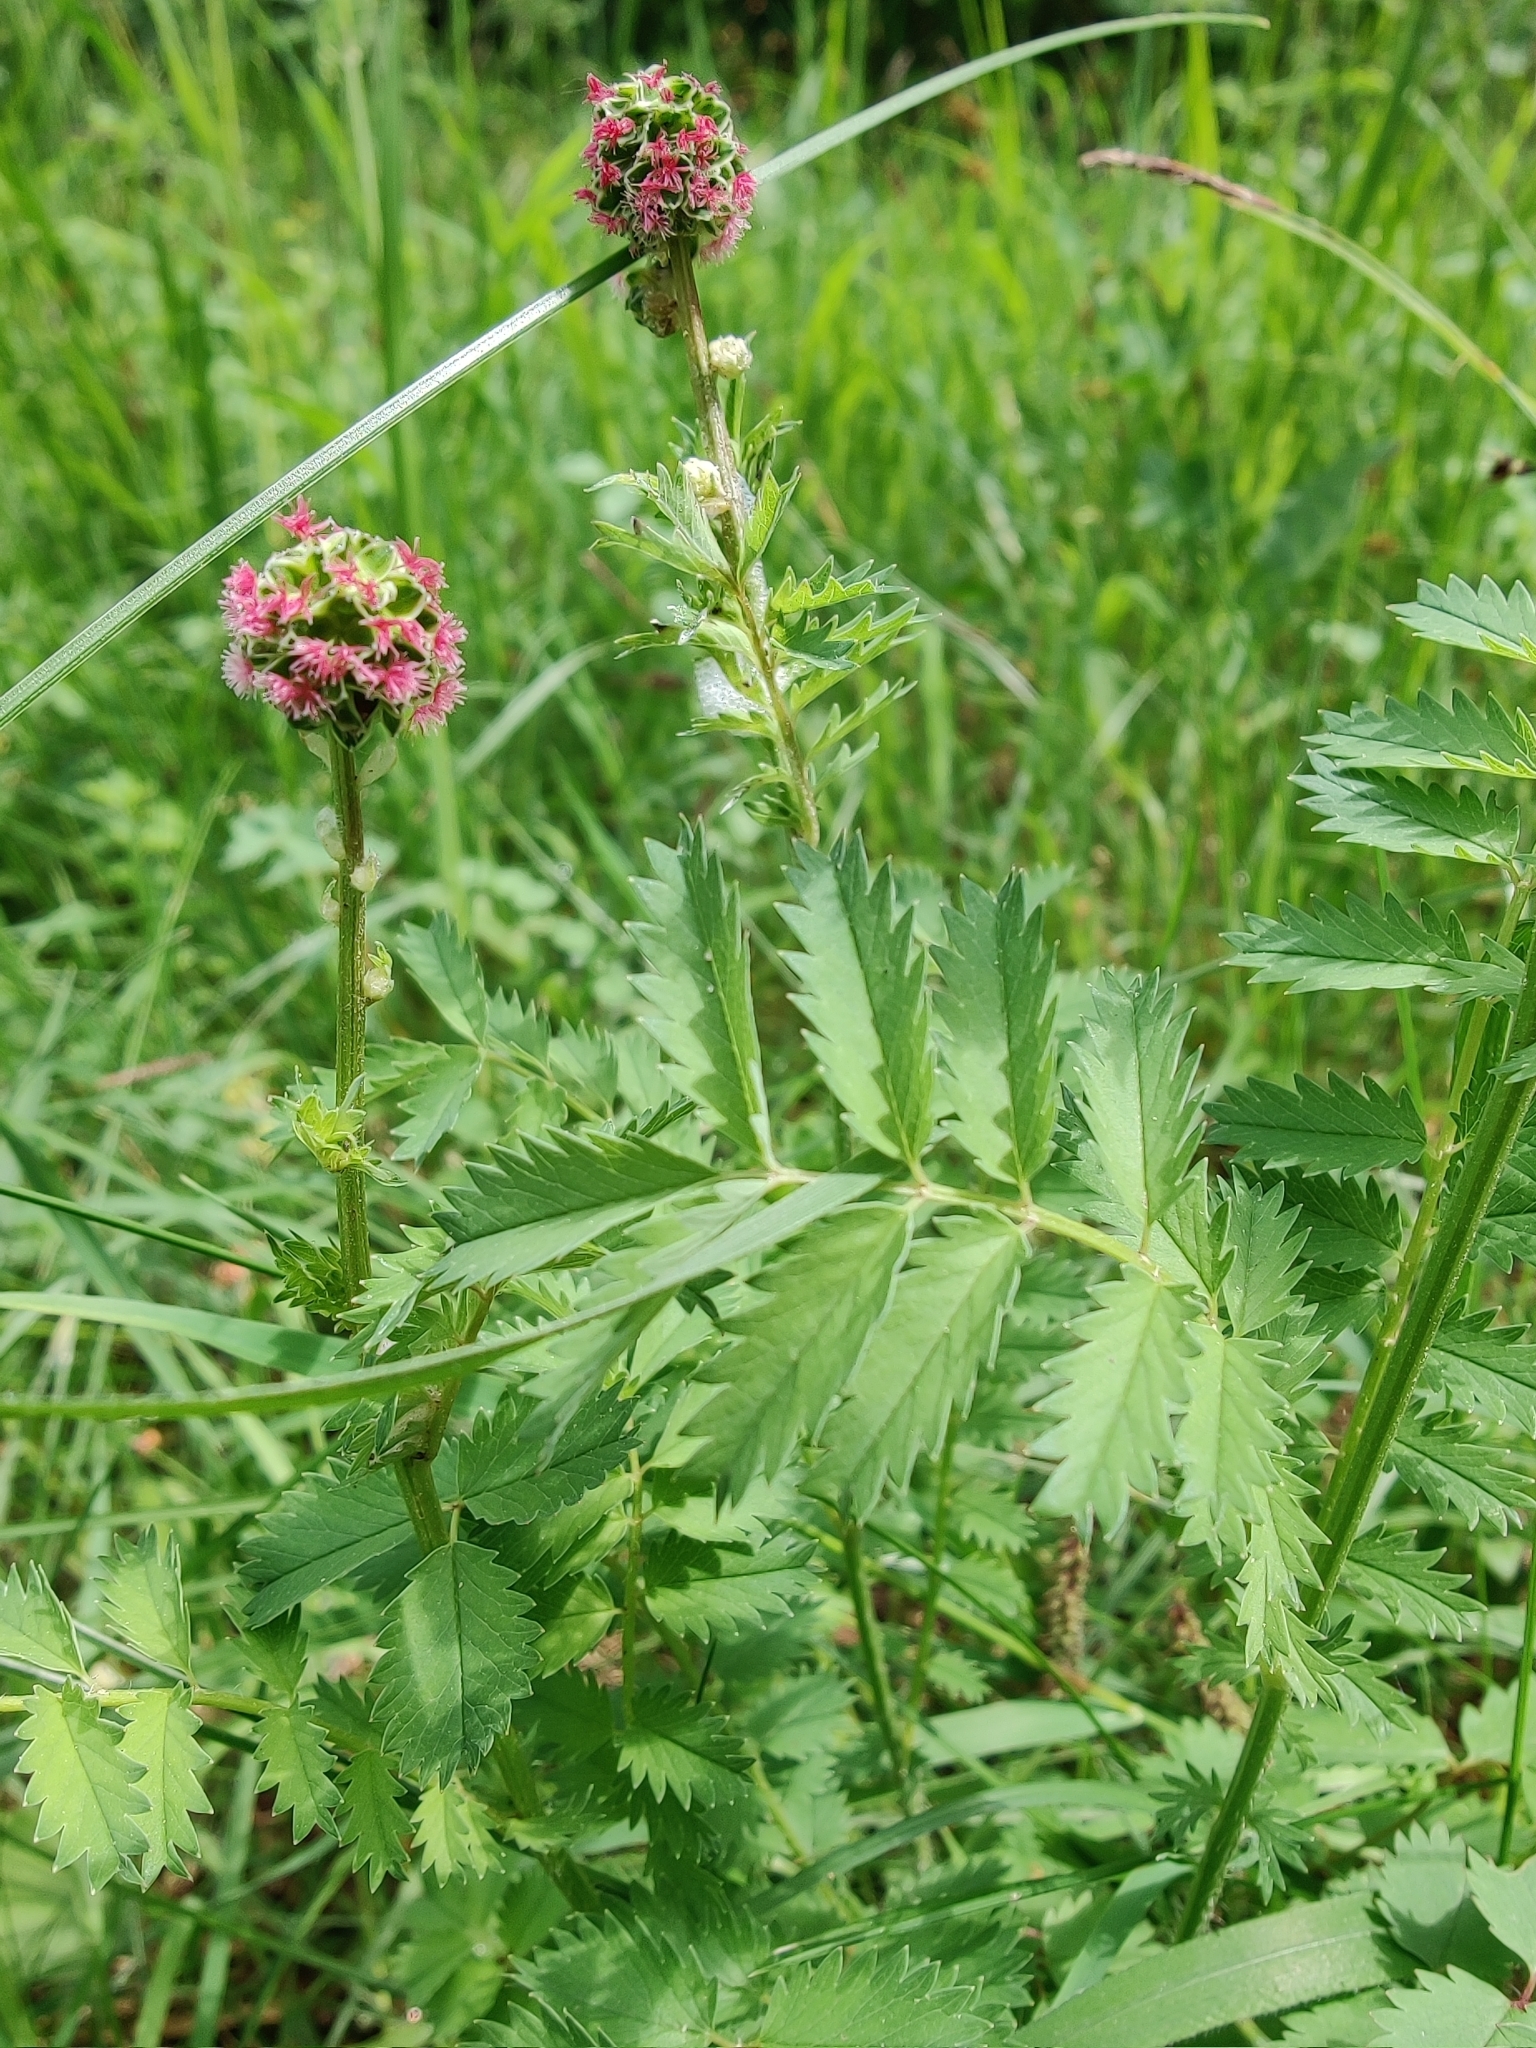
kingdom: Plantae
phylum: Tracheophyta
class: Magnoliopsida
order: Rosales
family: Rosaceae
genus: Sanguisorba
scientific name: Sanguisorba officinalis
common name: Great burnet
